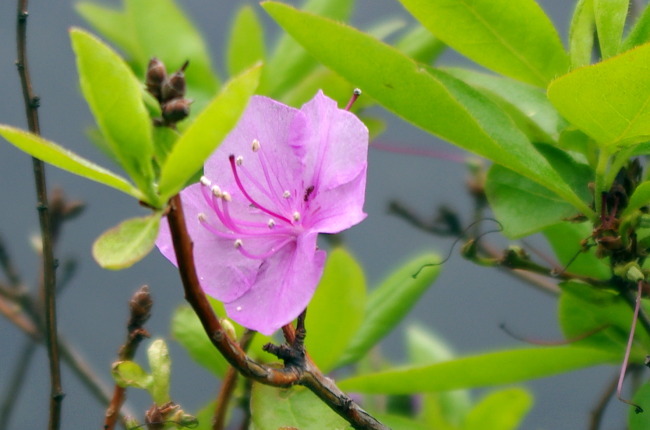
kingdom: Plantae
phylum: Tracheophyta
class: Magnoliopsida
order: Ericales
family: Ericaceae
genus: Rhododendron
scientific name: Rhododendron mucronulatum
